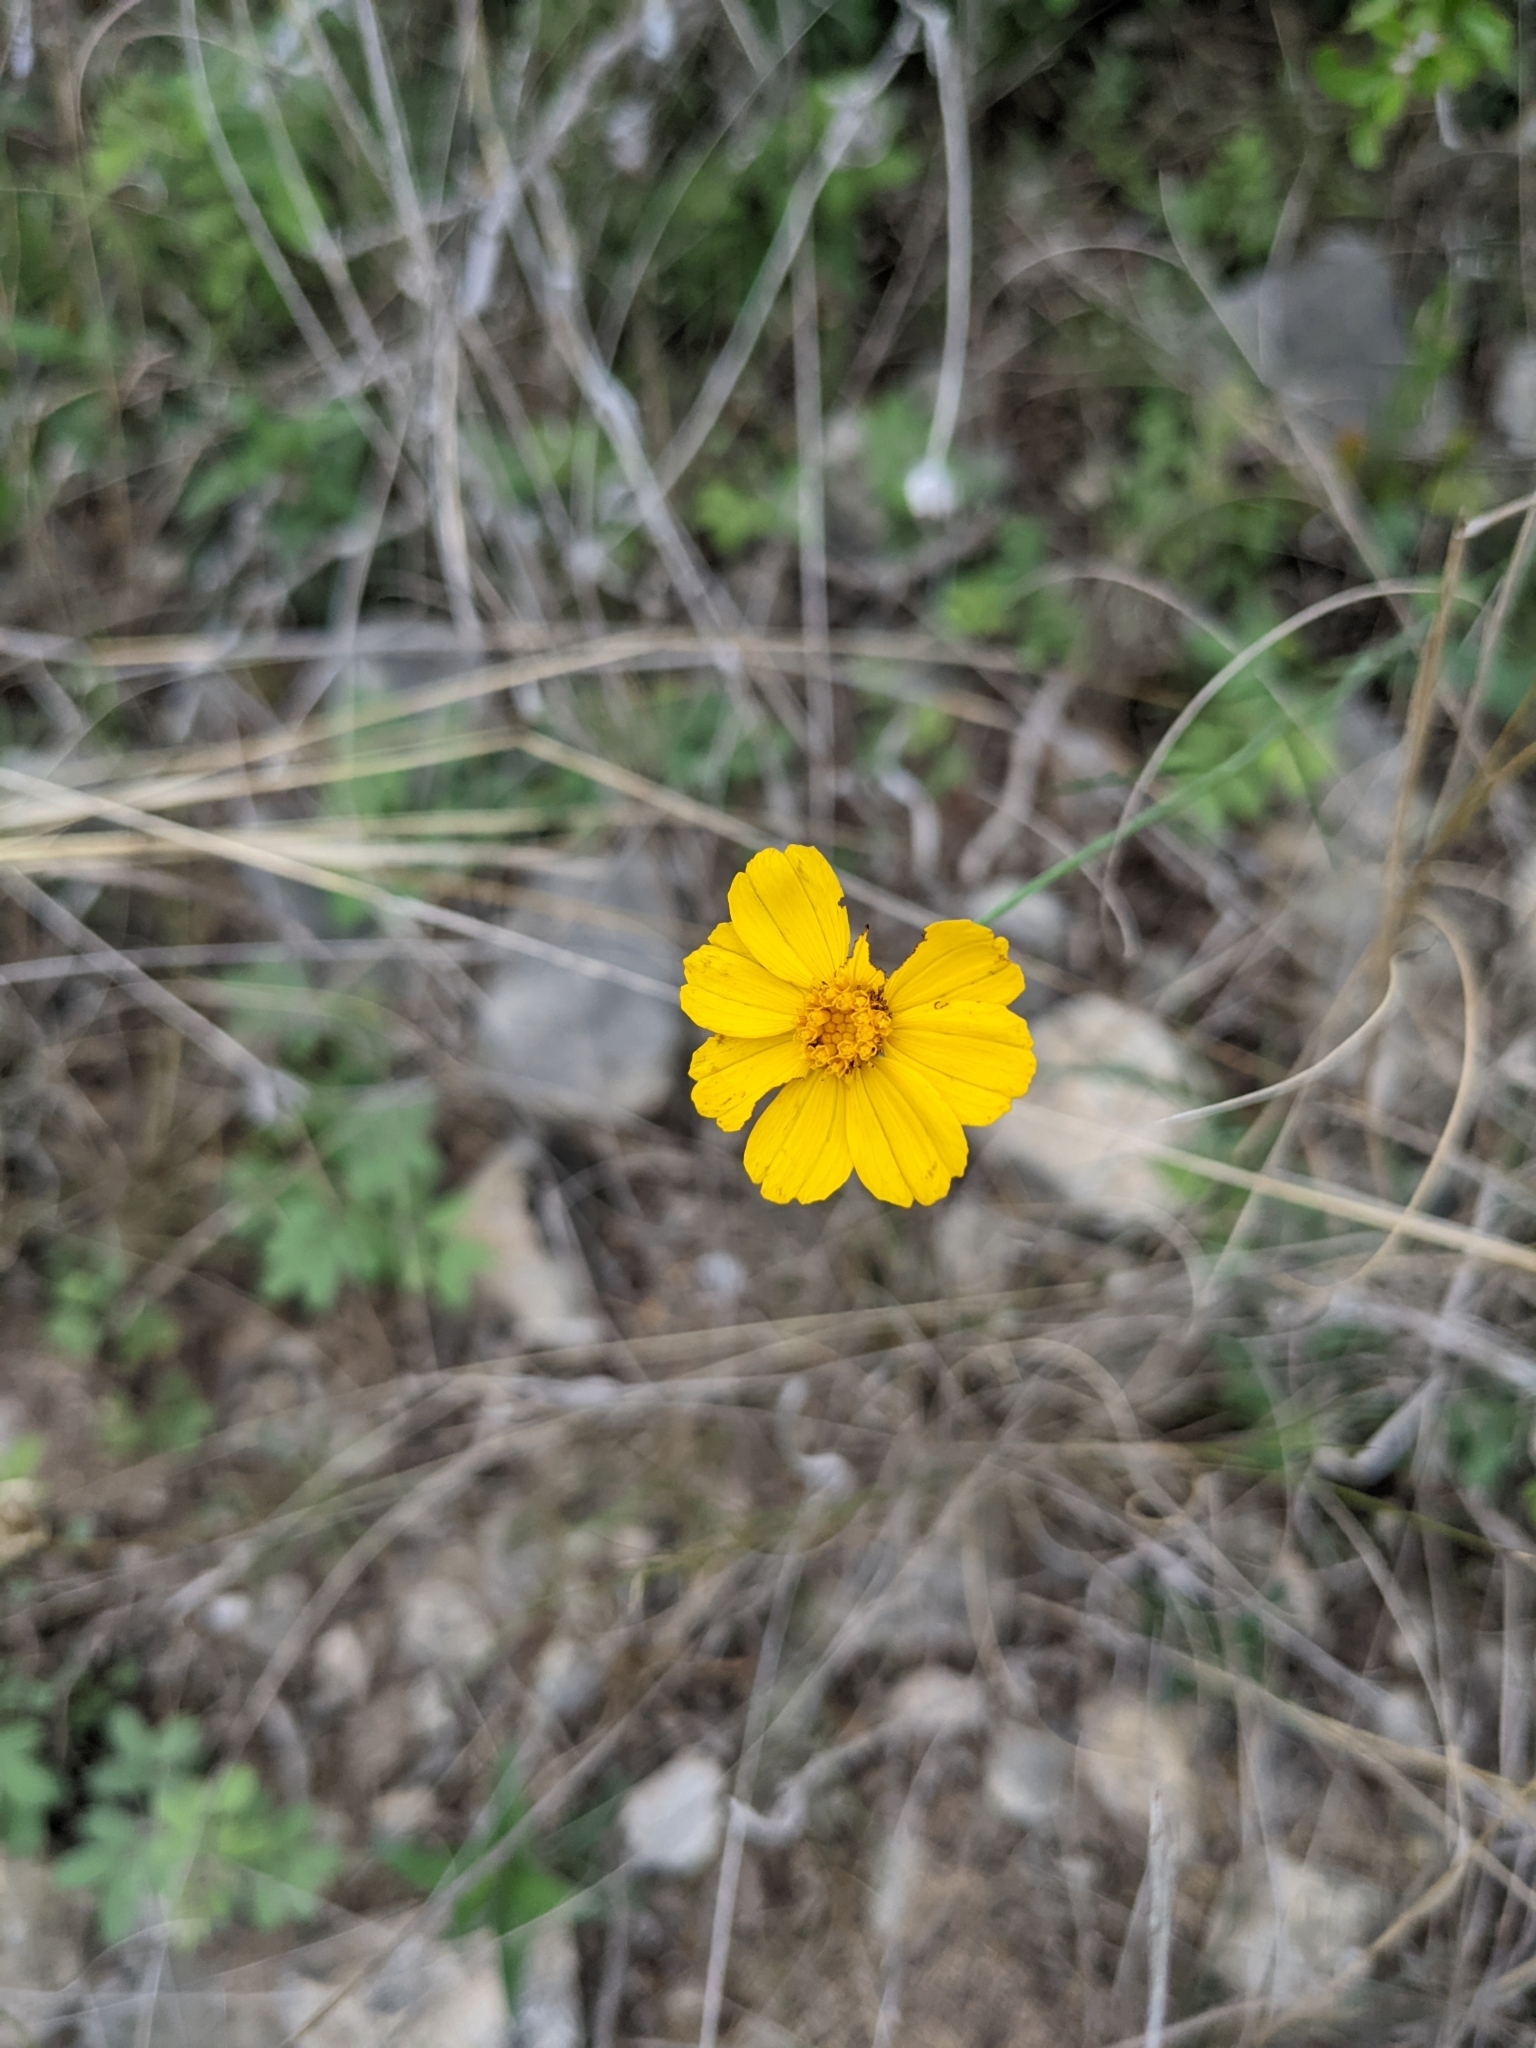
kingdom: Plantae
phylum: Tracheophyta
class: Magnoliopsida
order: Asterales
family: Asteraceae
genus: Thelesperma
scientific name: Thelesperma simplicifolium
